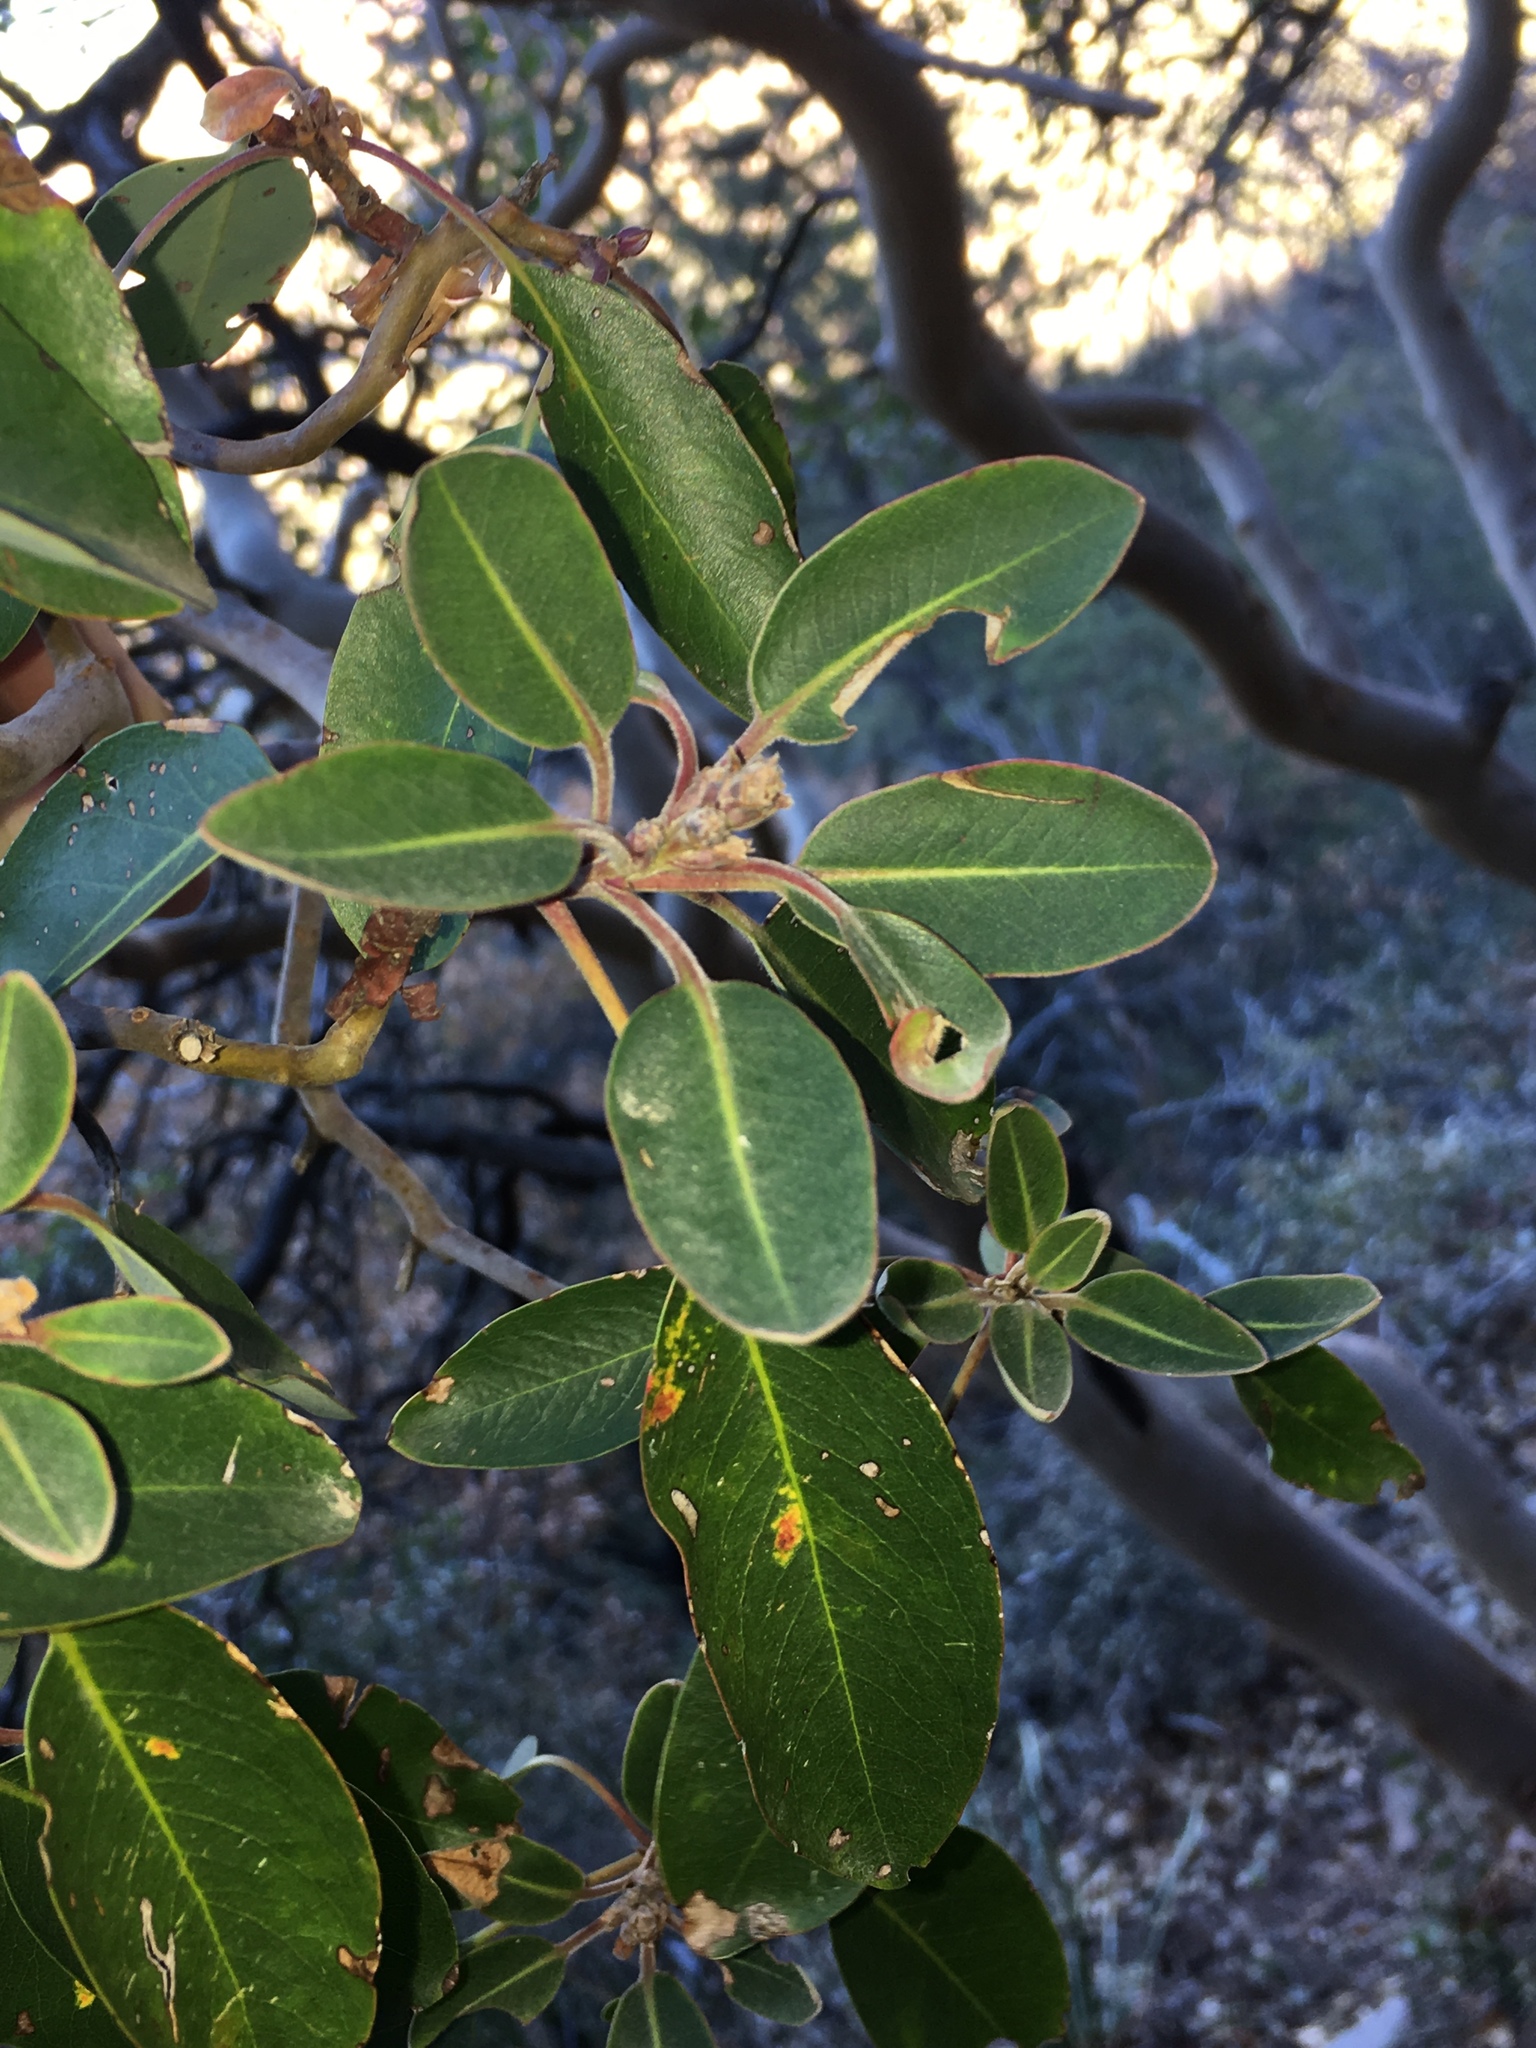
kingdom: Plantae
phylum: Tracheophyta
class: Magnoliopsida
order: Ericales
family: Ericaceae
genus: Arbutus
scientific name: Arbutus xalapensis
